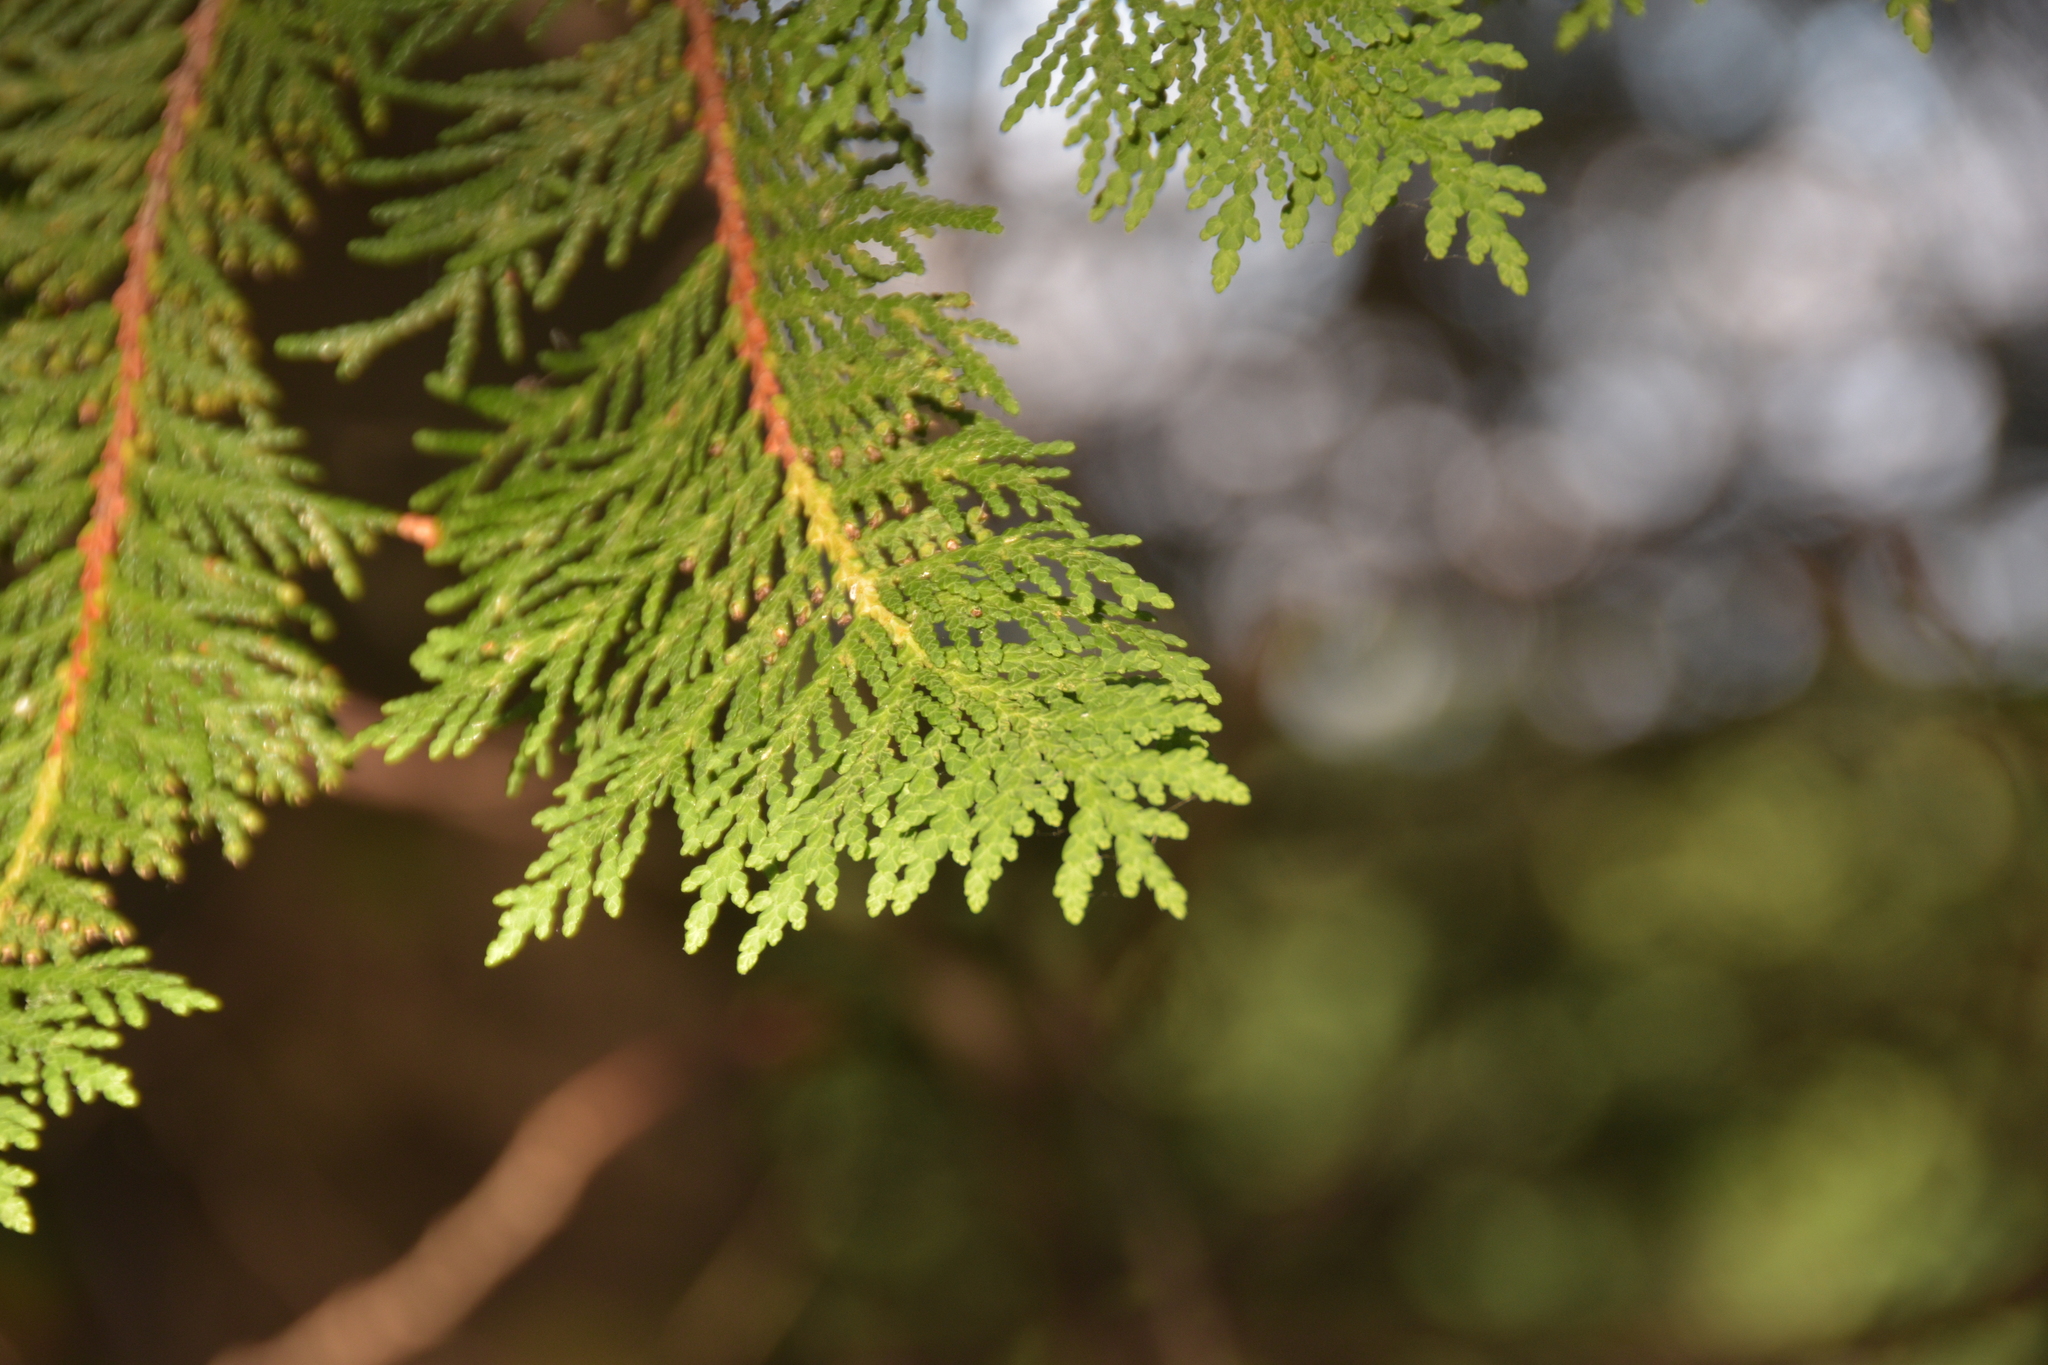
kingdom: Plantae
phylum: Tracheophyta
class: Pinopsida
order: Pinales
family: Cupressaceae
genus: Thuja
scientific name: Thuja occidentalis
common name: Northern white-cedar
